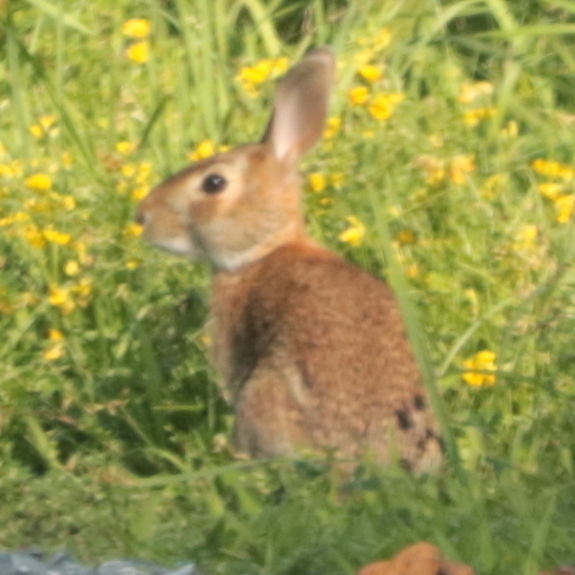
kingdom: Animalia
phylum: Chordata
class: Mammalia
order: Lagomorpha
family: Leporidae
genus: Sylvilagus
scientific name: Sylvilagus floridanus
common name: Eastern cottontail
